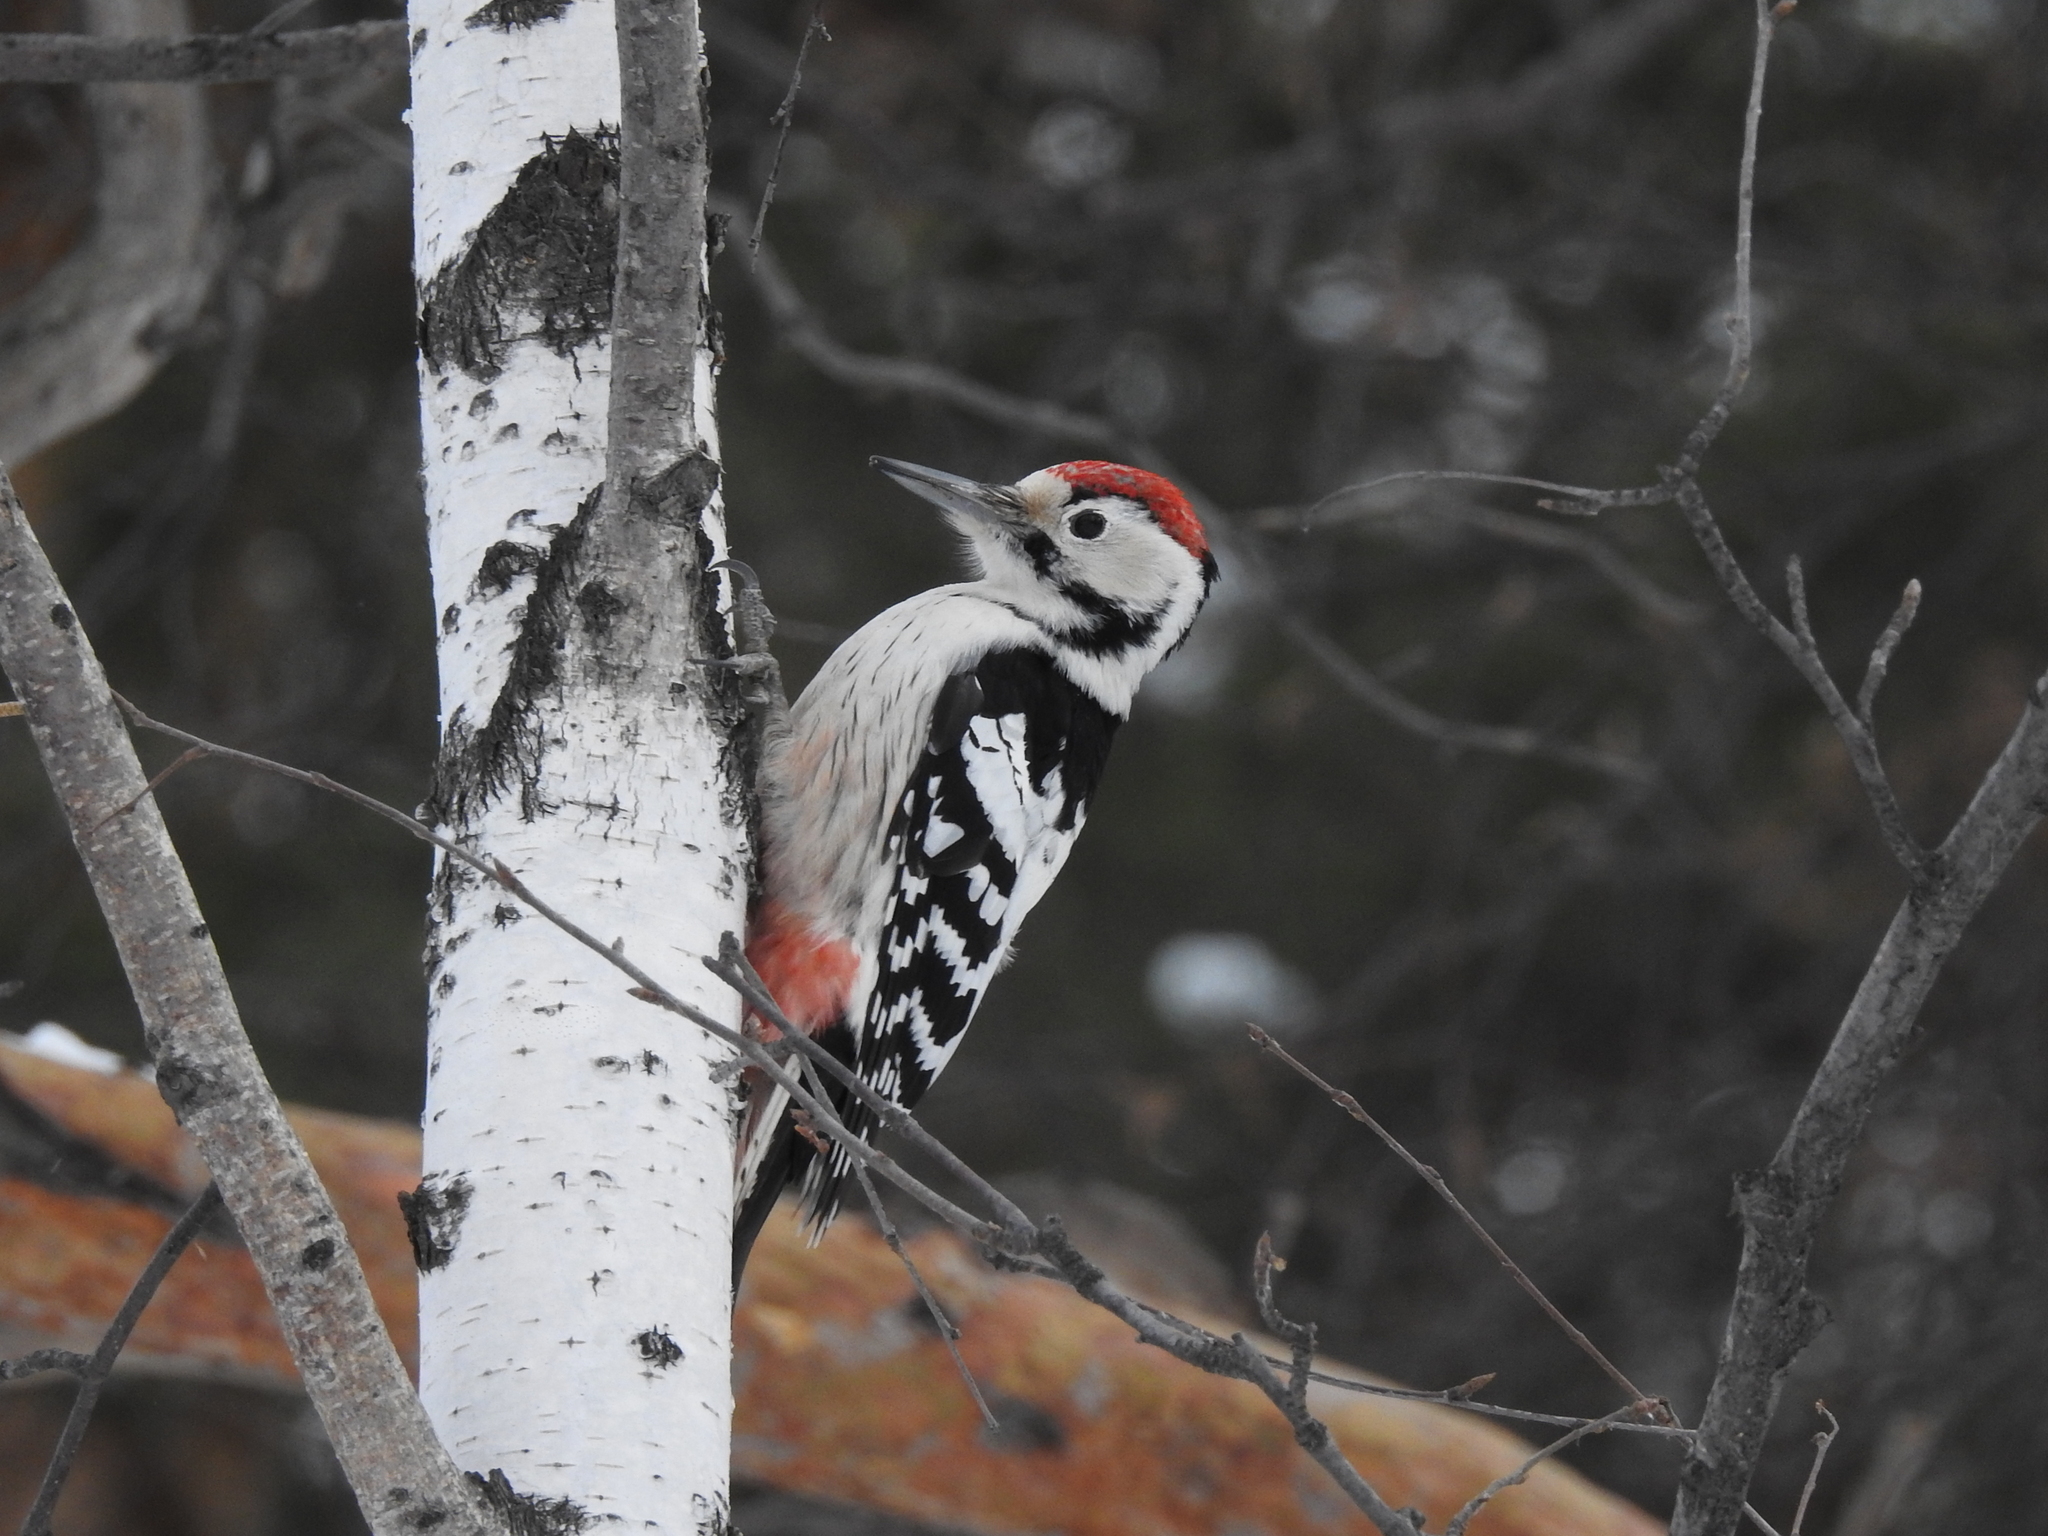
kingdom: Animalia
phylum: Chordata
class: Aves
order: Piciformes
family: Picidae
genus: Dendrocopos
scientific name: Dendrocopos leucotos
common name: White-backed woodpecker
